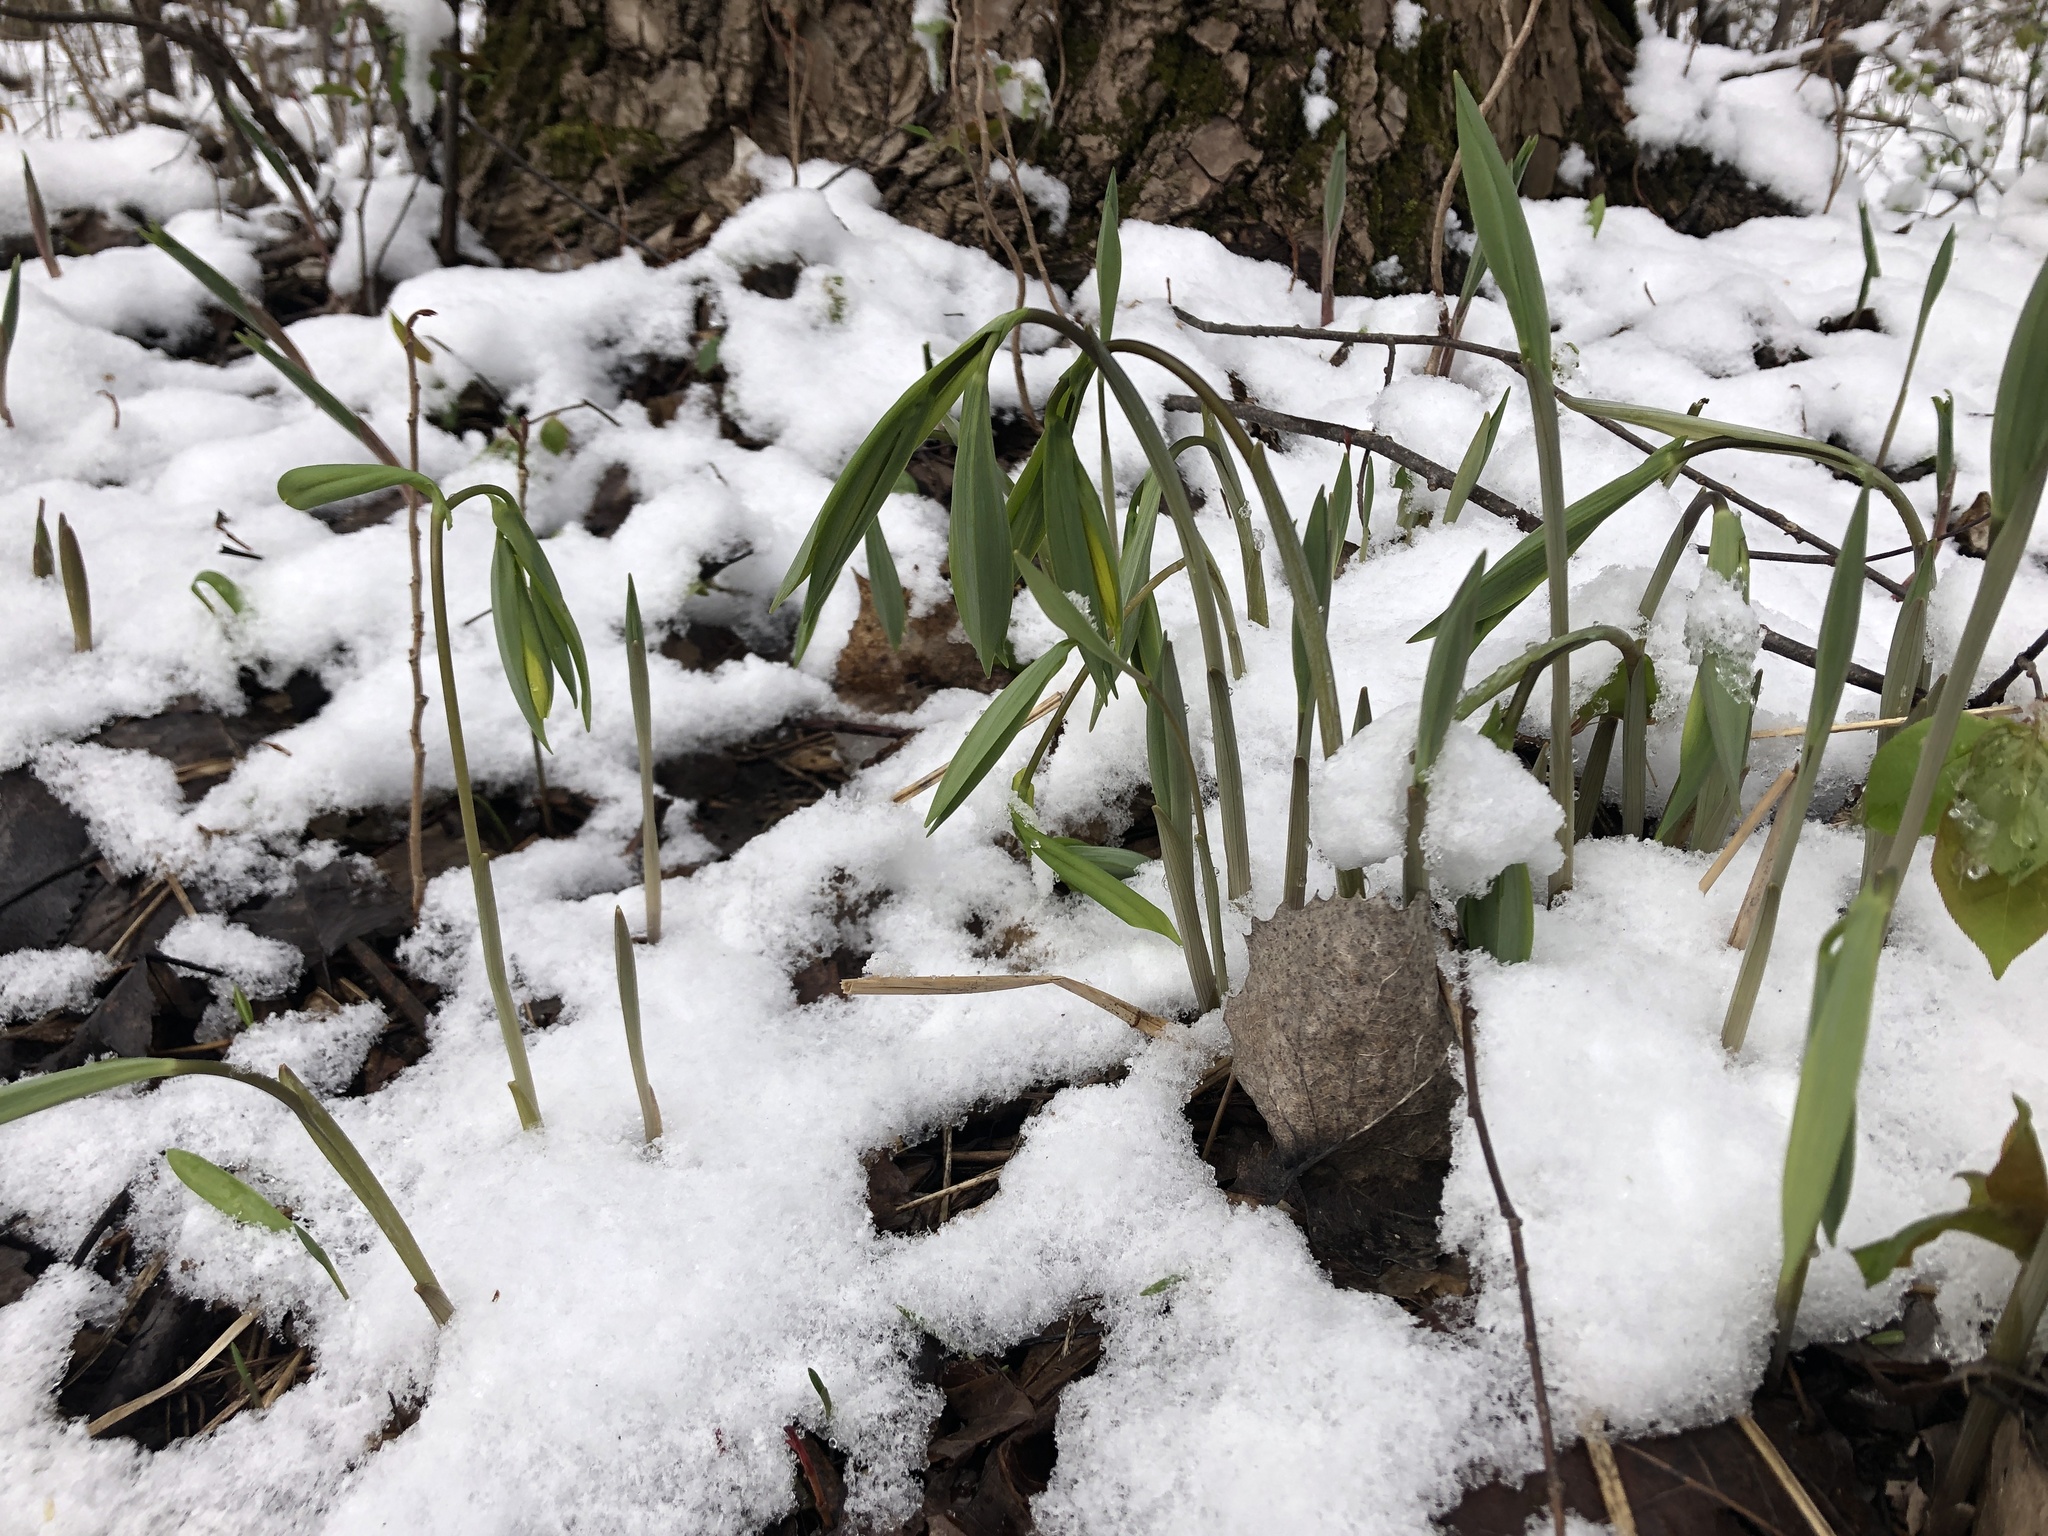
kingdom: Plantae
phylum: Tracheophyta
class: Liliopsida
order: Liliales
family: Colchicaceae
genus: Uvularia
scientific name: Uvularia grandiflora
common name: Bellwort
